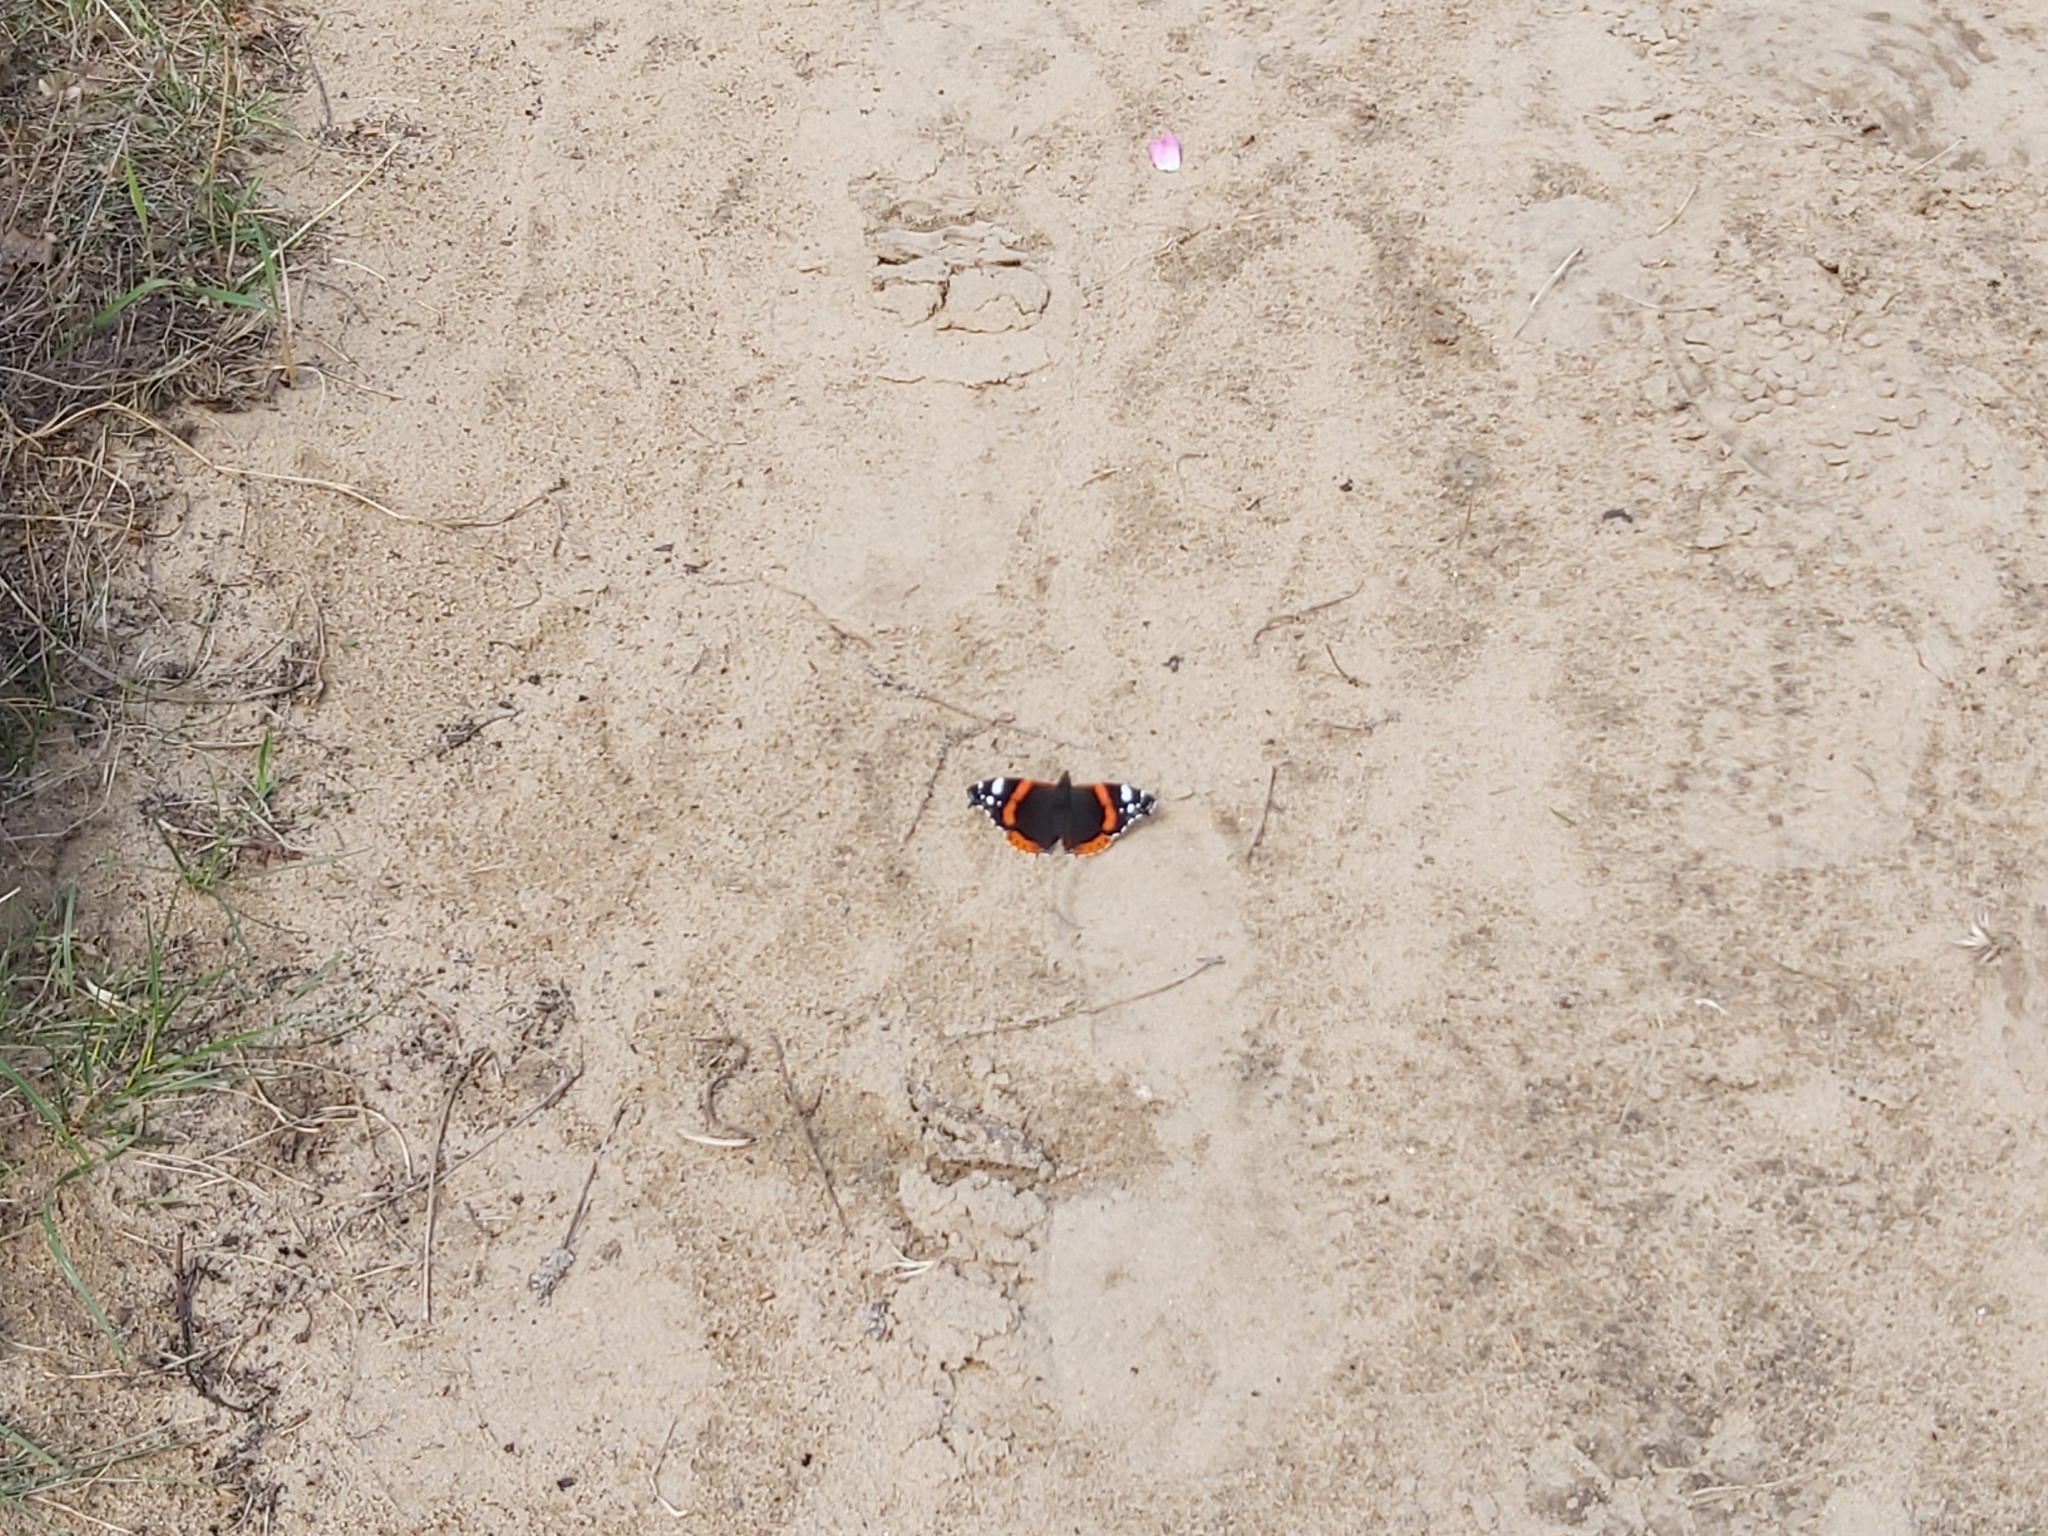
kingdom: Animalia
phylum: Arthropoda
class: Insecta
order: Lepidoptera
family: Nymphalidae
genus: Vanessa
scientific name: Vanessa atalanta
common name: Red admiral
